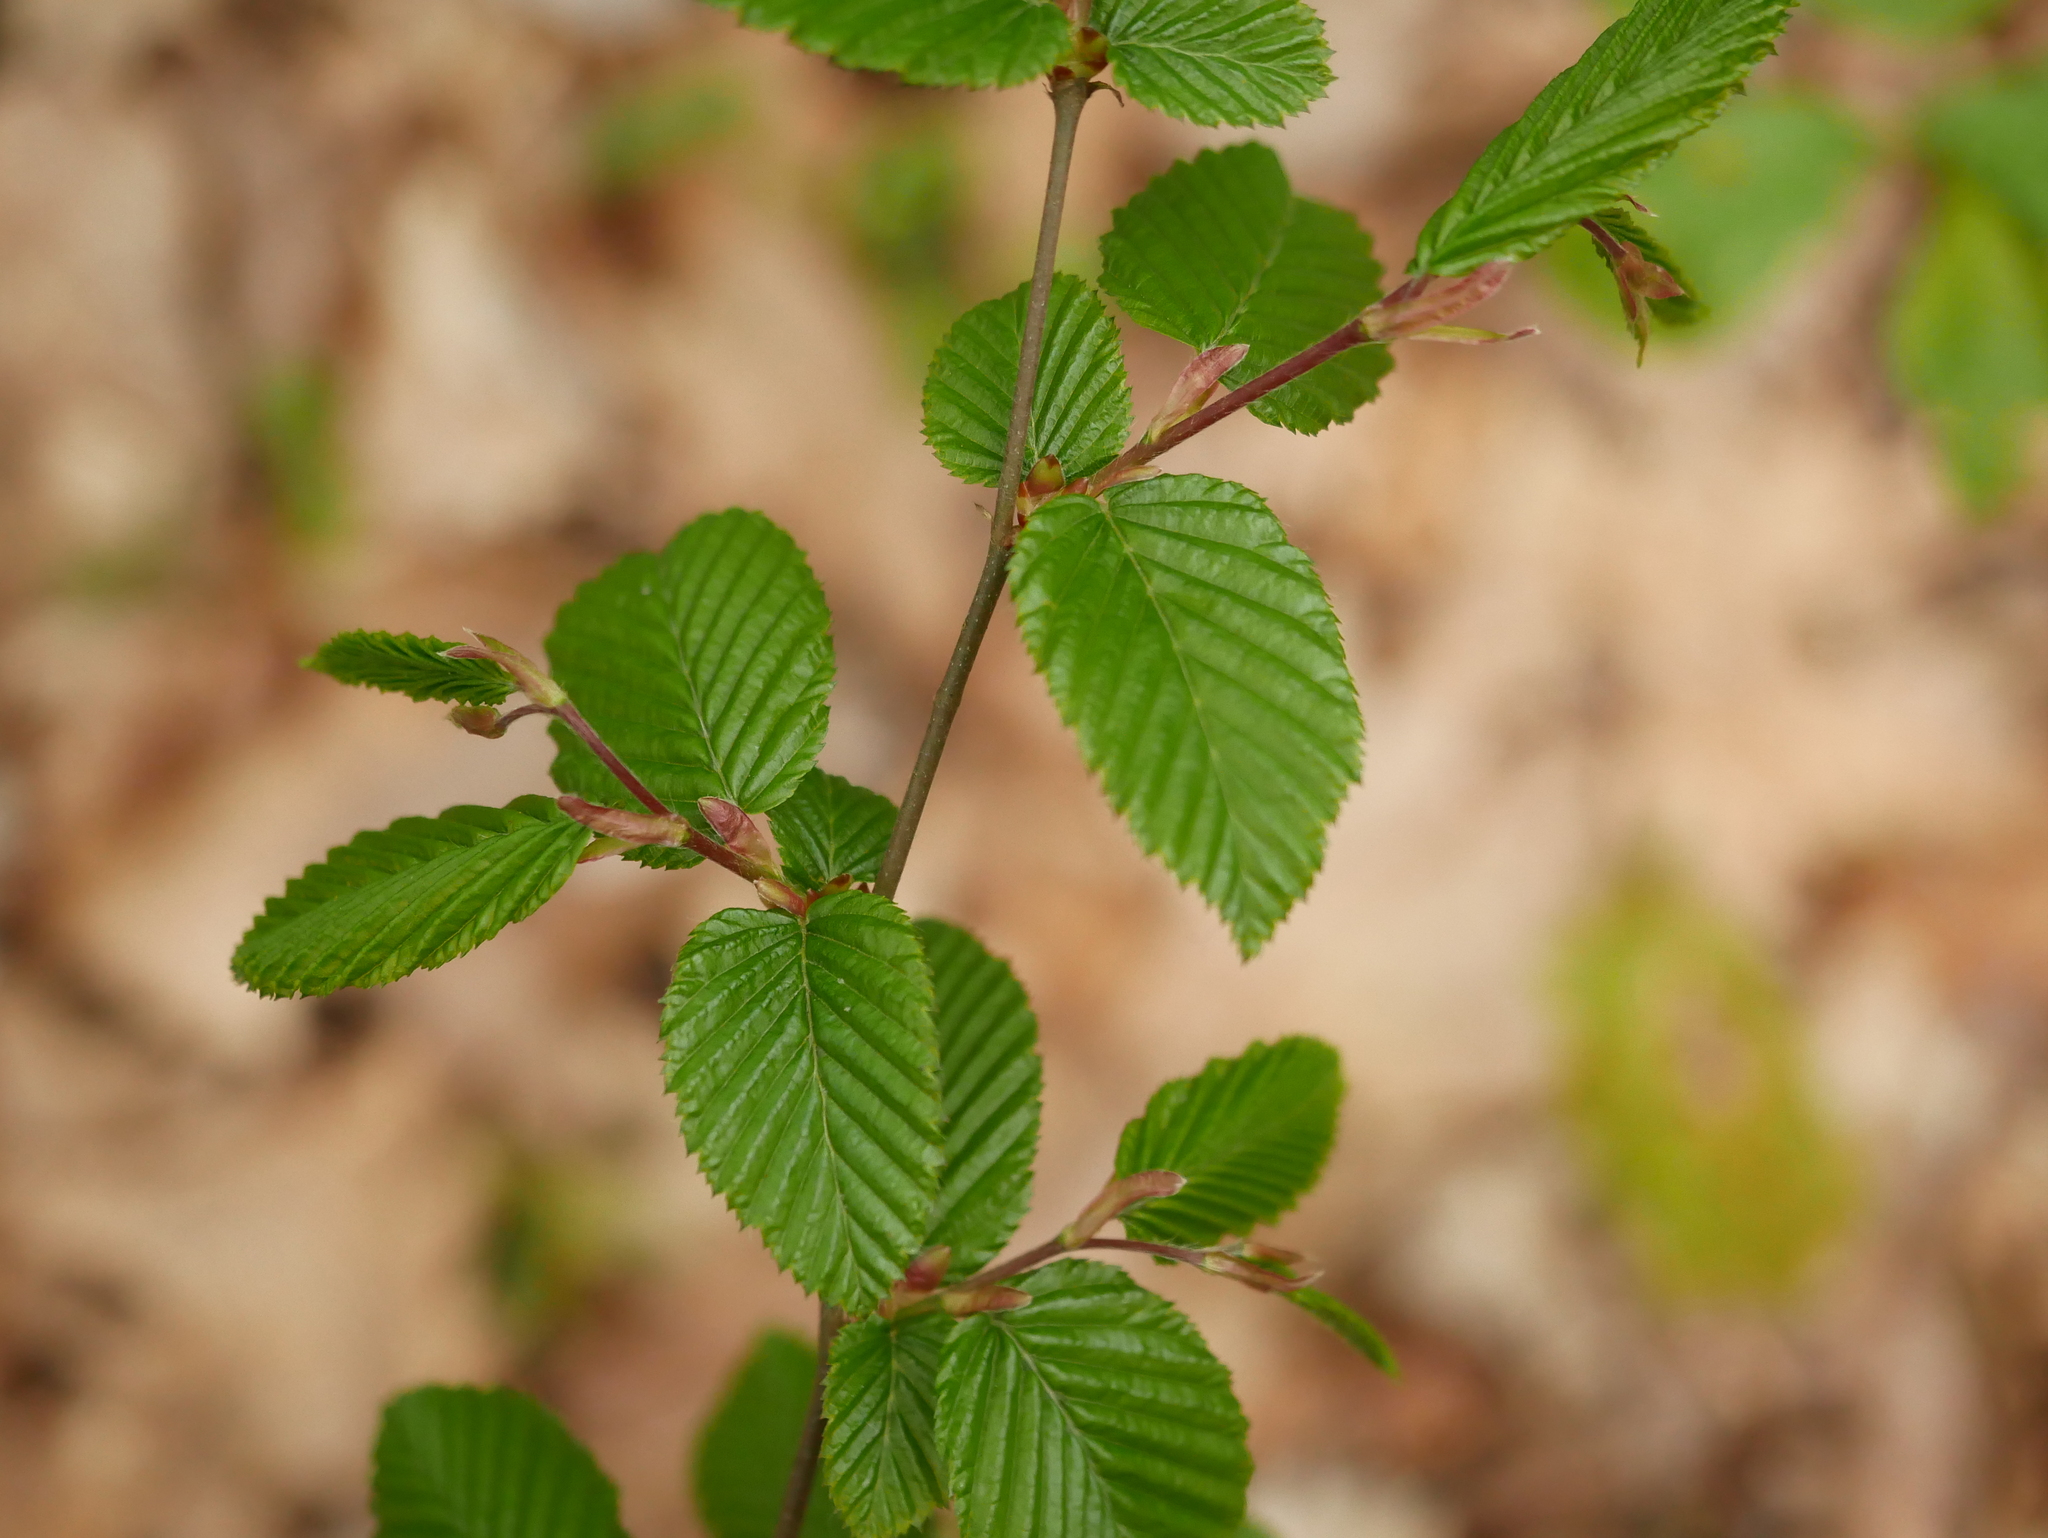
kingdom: Plantae
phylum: Tracheophyta
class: Magnoliopsida
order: Fagales
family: Betulaceae
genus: Carpinus
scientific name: Carpinus betulus
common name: Hornbeam
